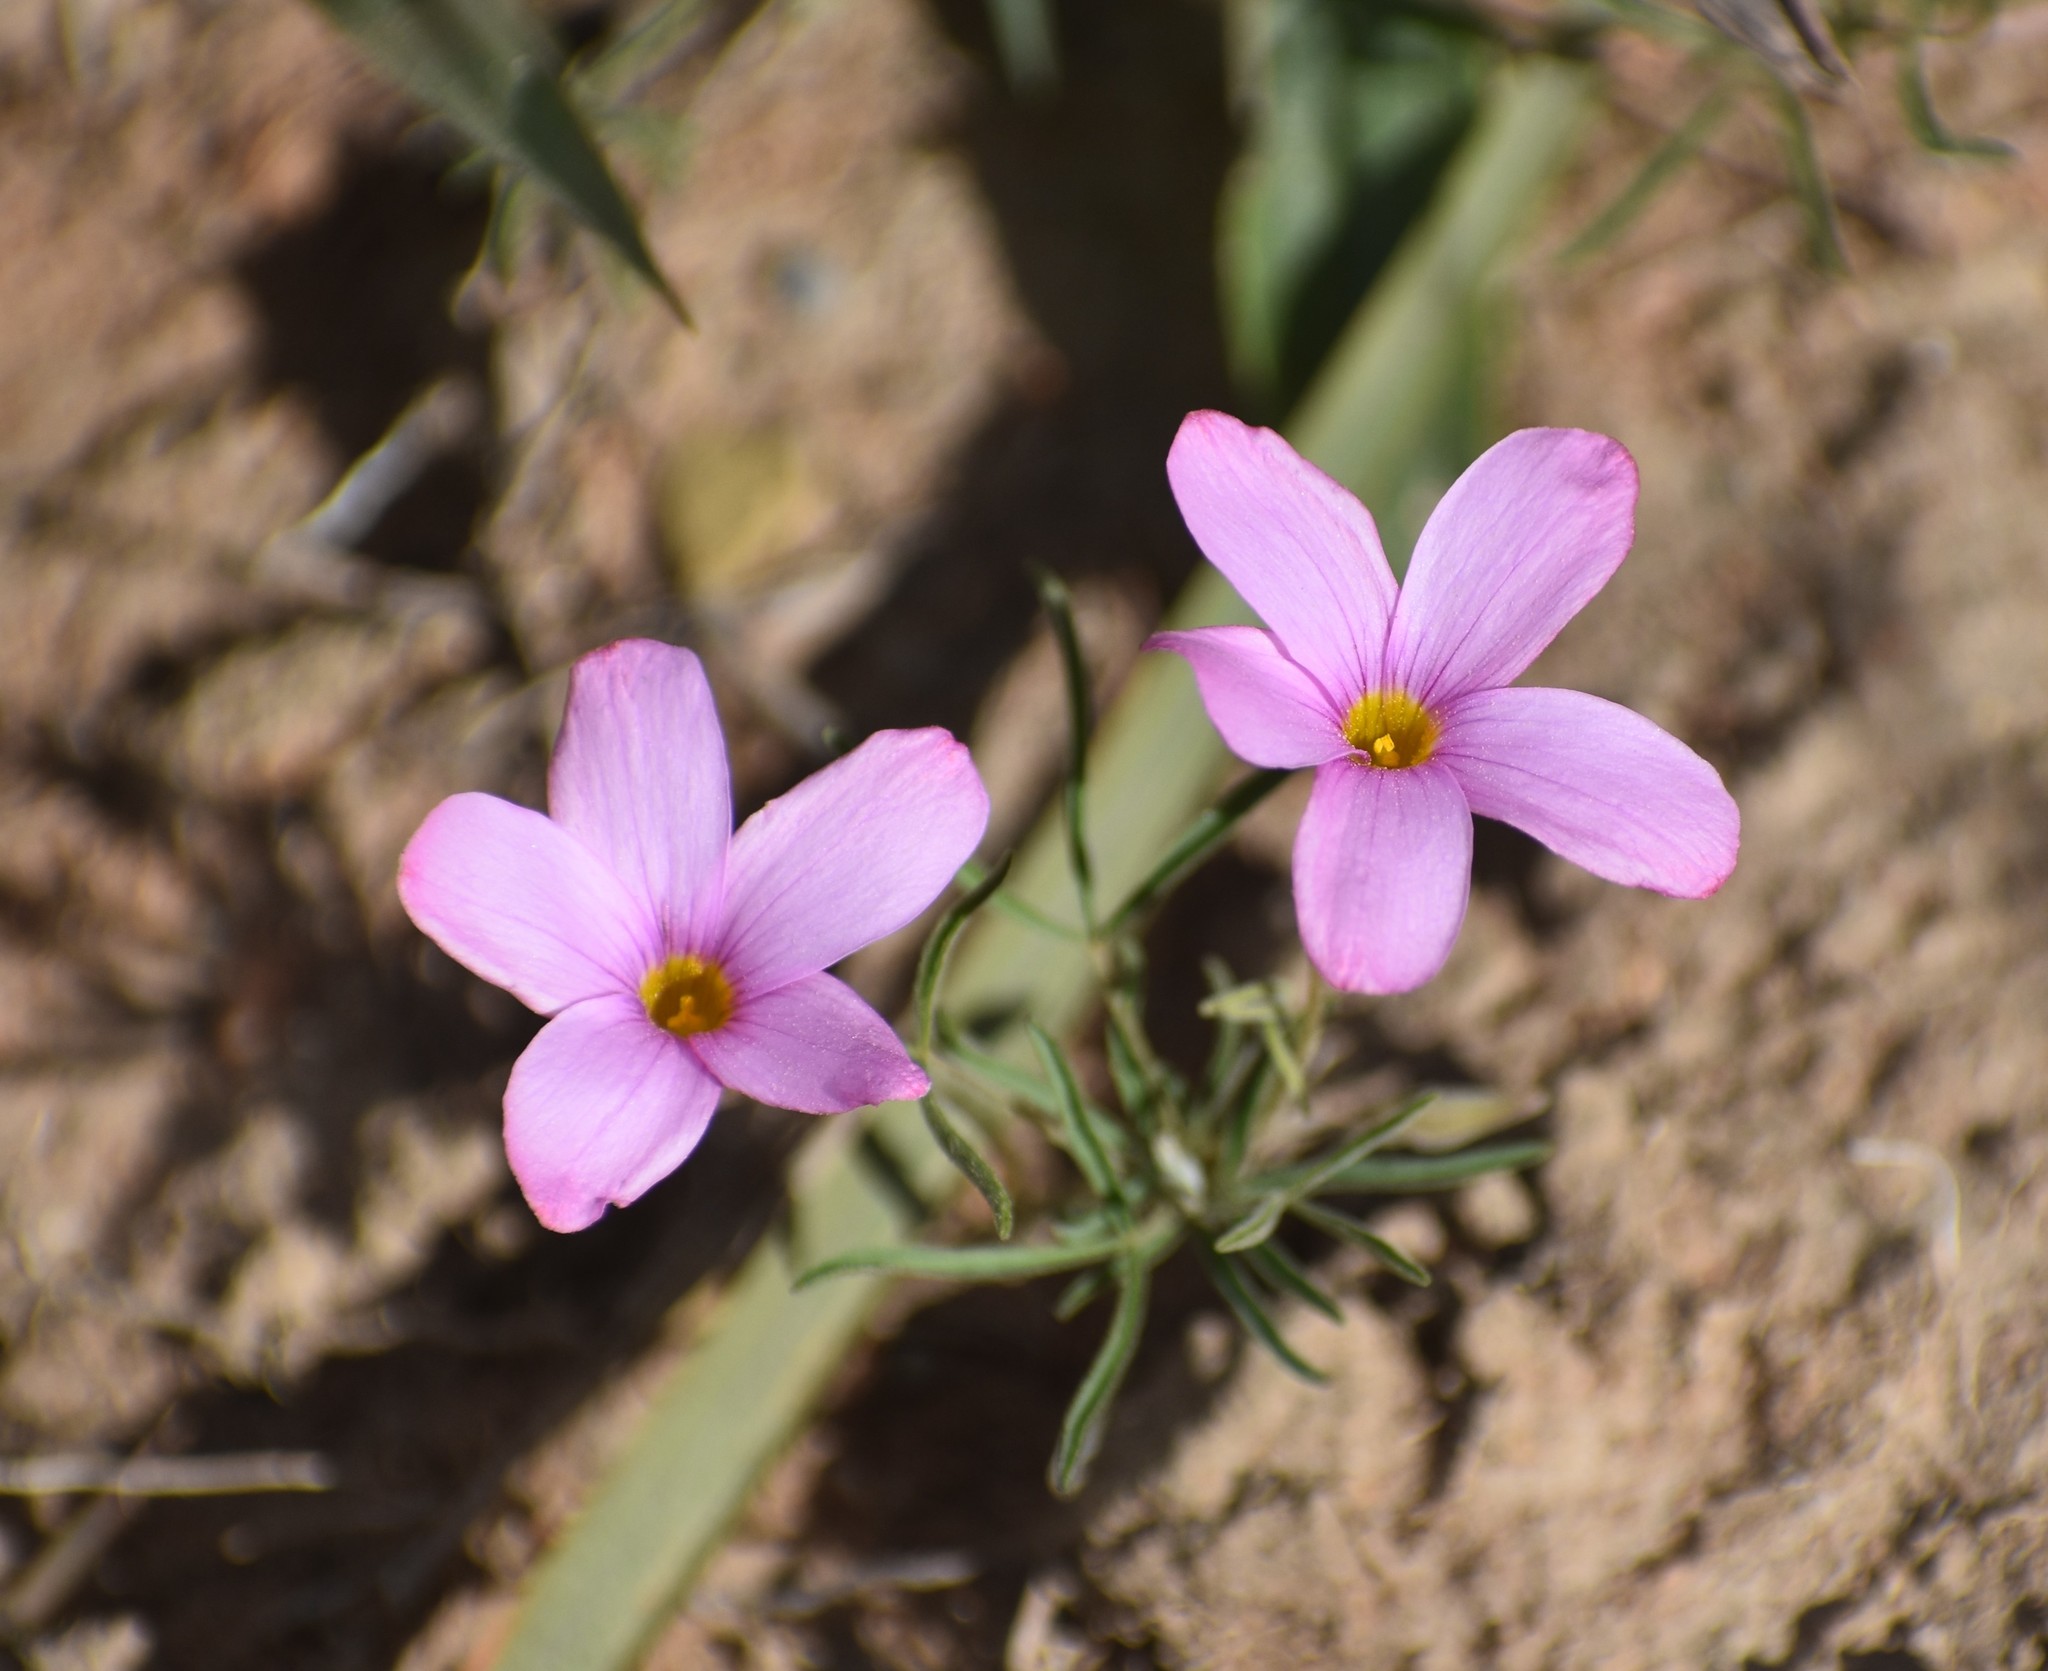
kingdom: Plantae
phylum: Tracheophyta
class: Magnoliopsida
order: Oxalidales
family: Oxalidaceae
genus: Oxalis
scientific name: Oxalis ciliaris
